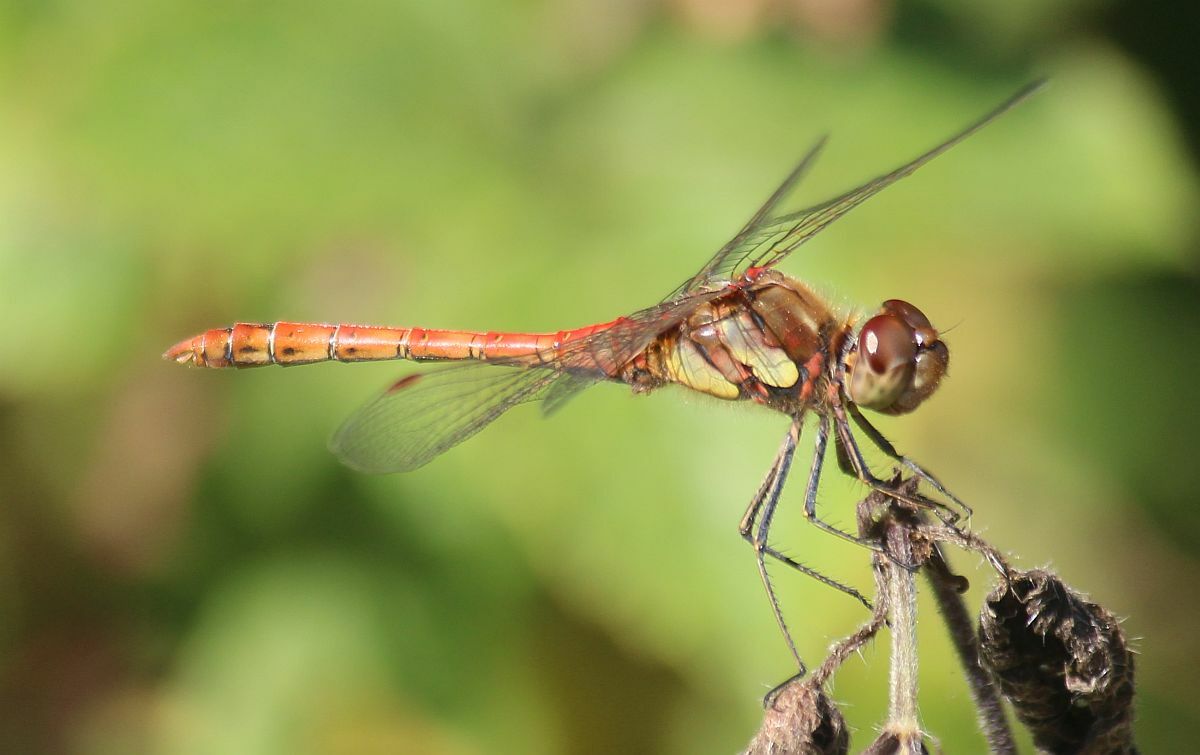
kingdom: Animalia
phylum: Arthropoda
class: Insecta
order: Odonata
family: Libellulidae
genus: Sympetrum
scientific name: Sympetrum striolatum
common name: Common darter
